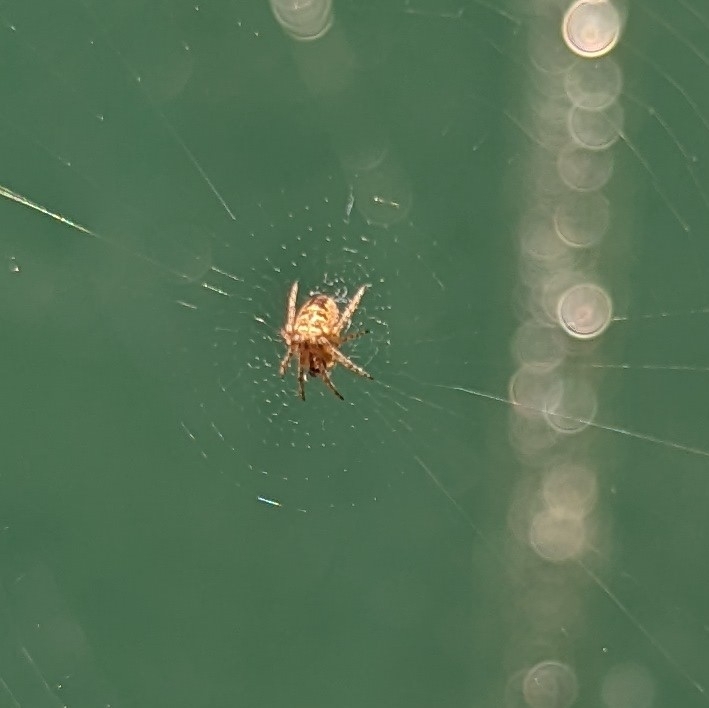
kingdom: Animalia
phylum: Arthropoda
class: Arachnida
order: Araneae
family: Araneidae
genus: Zilla
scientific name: Zilla diodia
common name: Zilla diodia
